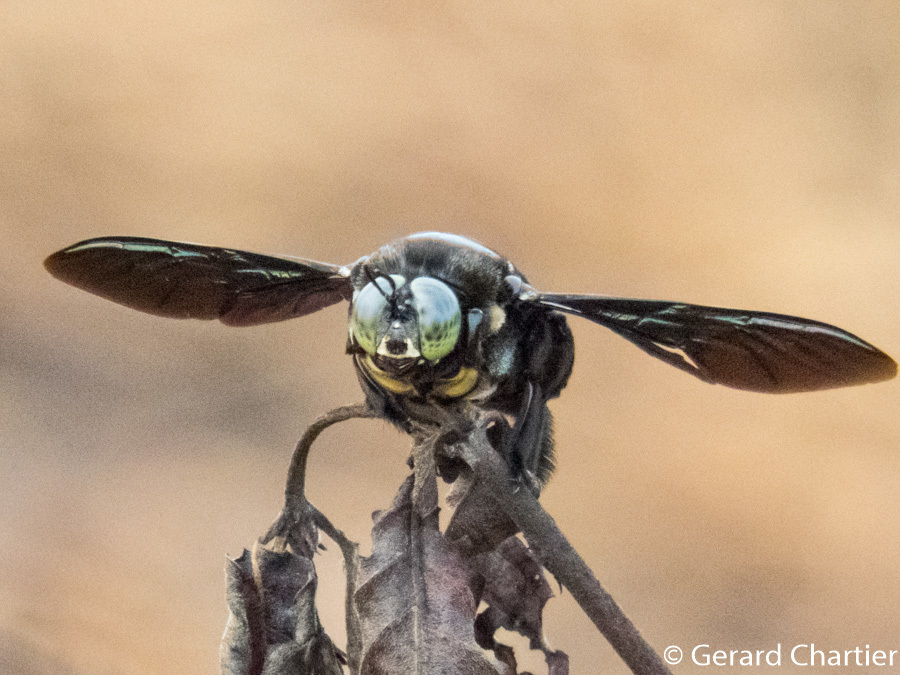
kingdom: Animalia
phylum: Arthropoda
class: Insecta
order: Hymenoptera
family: Apidae
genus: Xylocopa
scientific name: Xylocopa latipes
